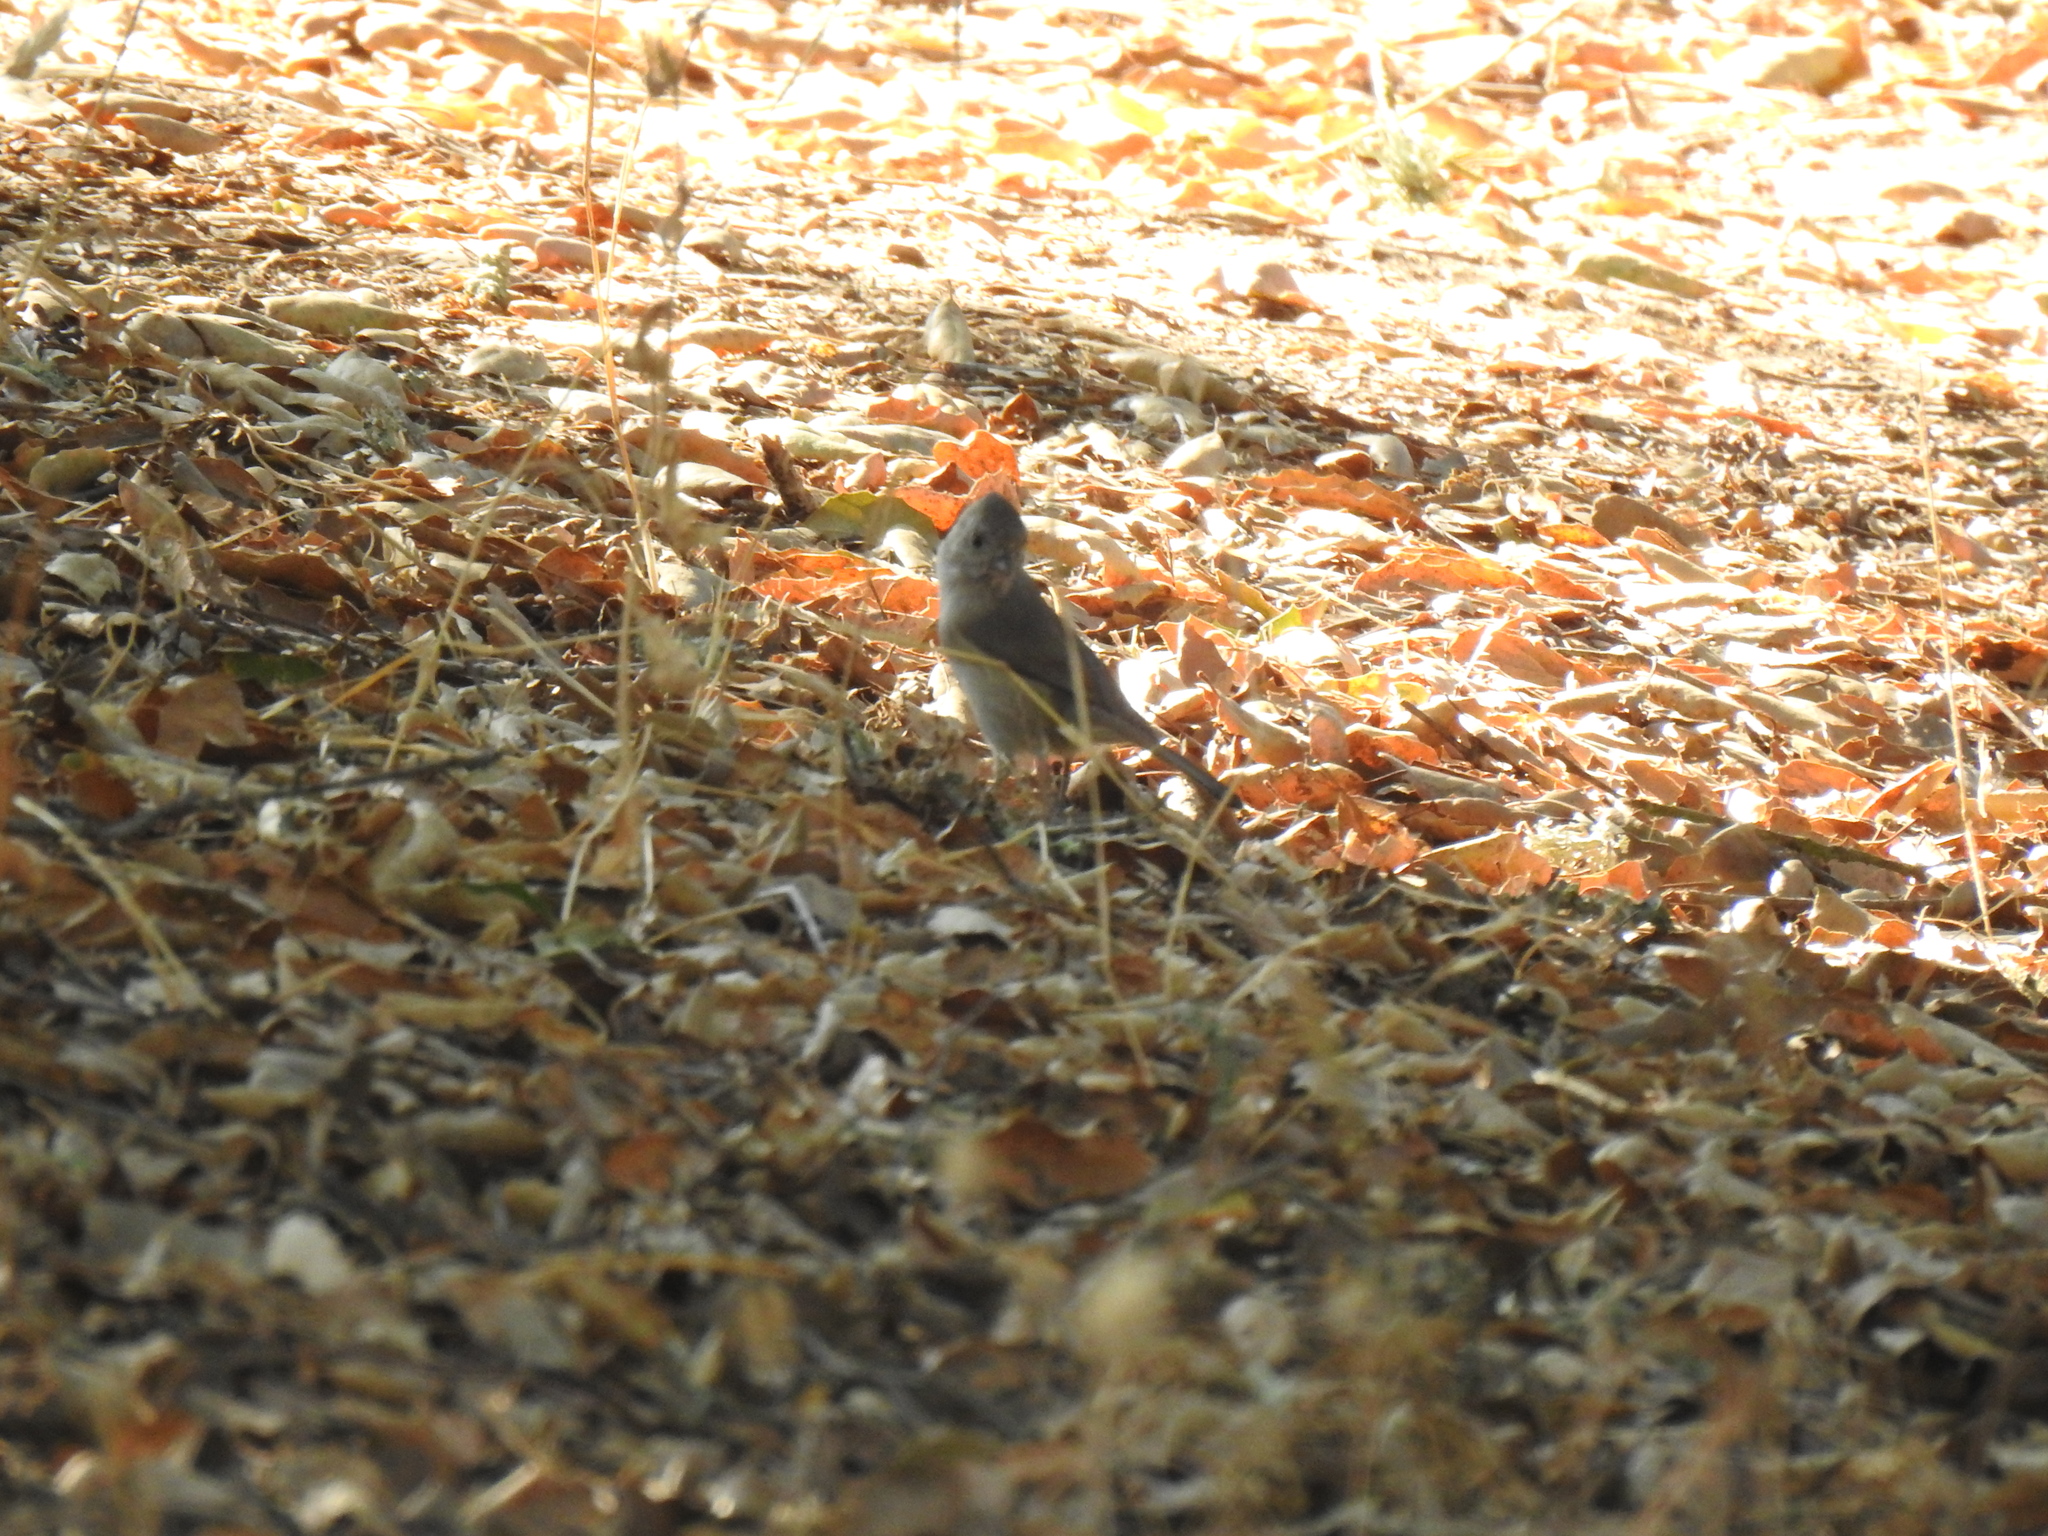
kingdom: Animalia
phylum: Chordata
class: Aves
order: Passeriformes
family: Paridae
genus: Baeolophus
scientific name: Baeolophus inornatus
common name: Oak titmouse
